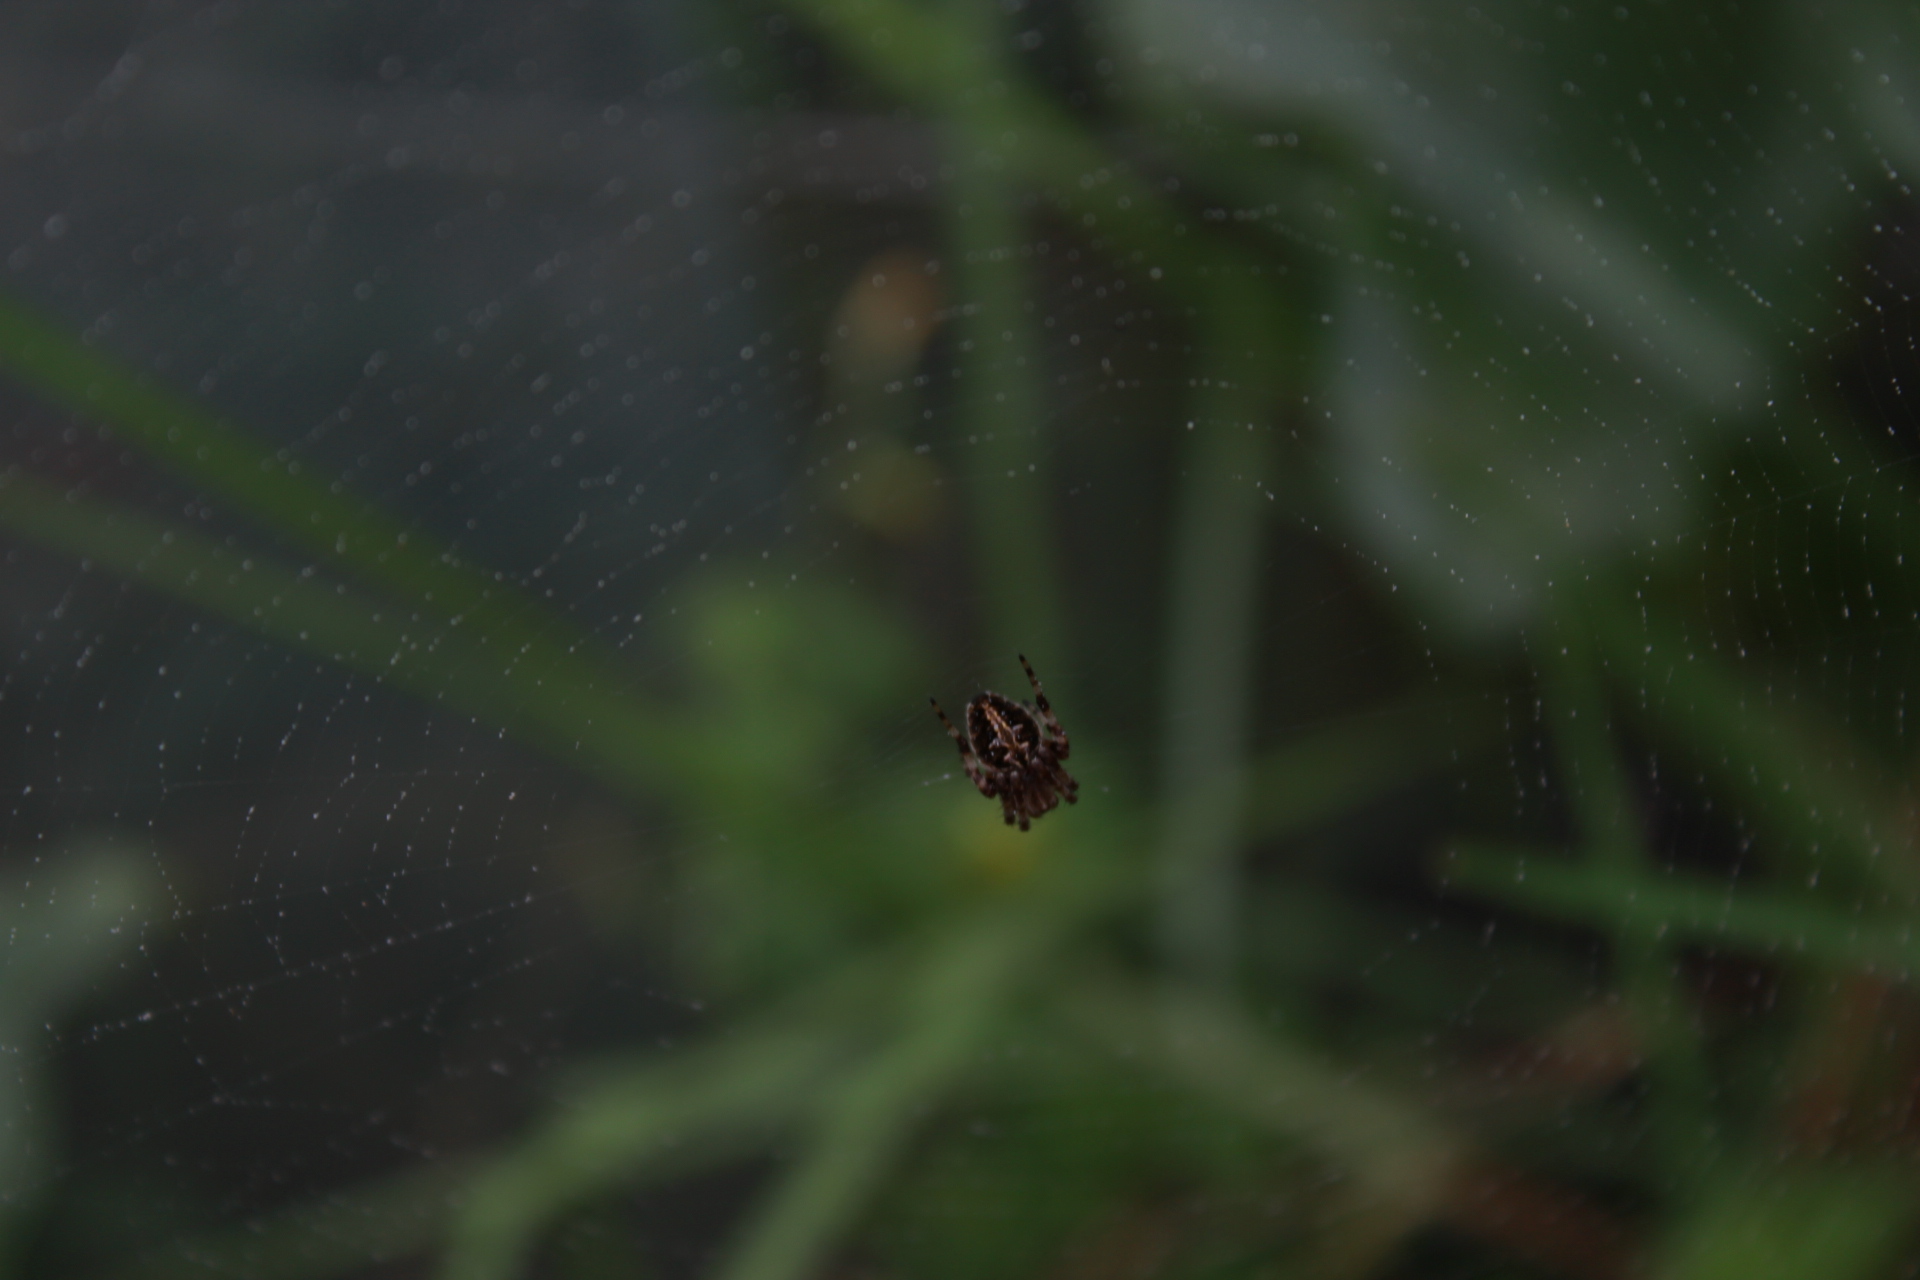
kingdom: Animalia
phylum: Arthropoda
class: Arachnida
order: Araneae
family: Araneidae
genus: Neoscona
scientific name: Neoscona crucifera
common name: Spotted orbweaver
